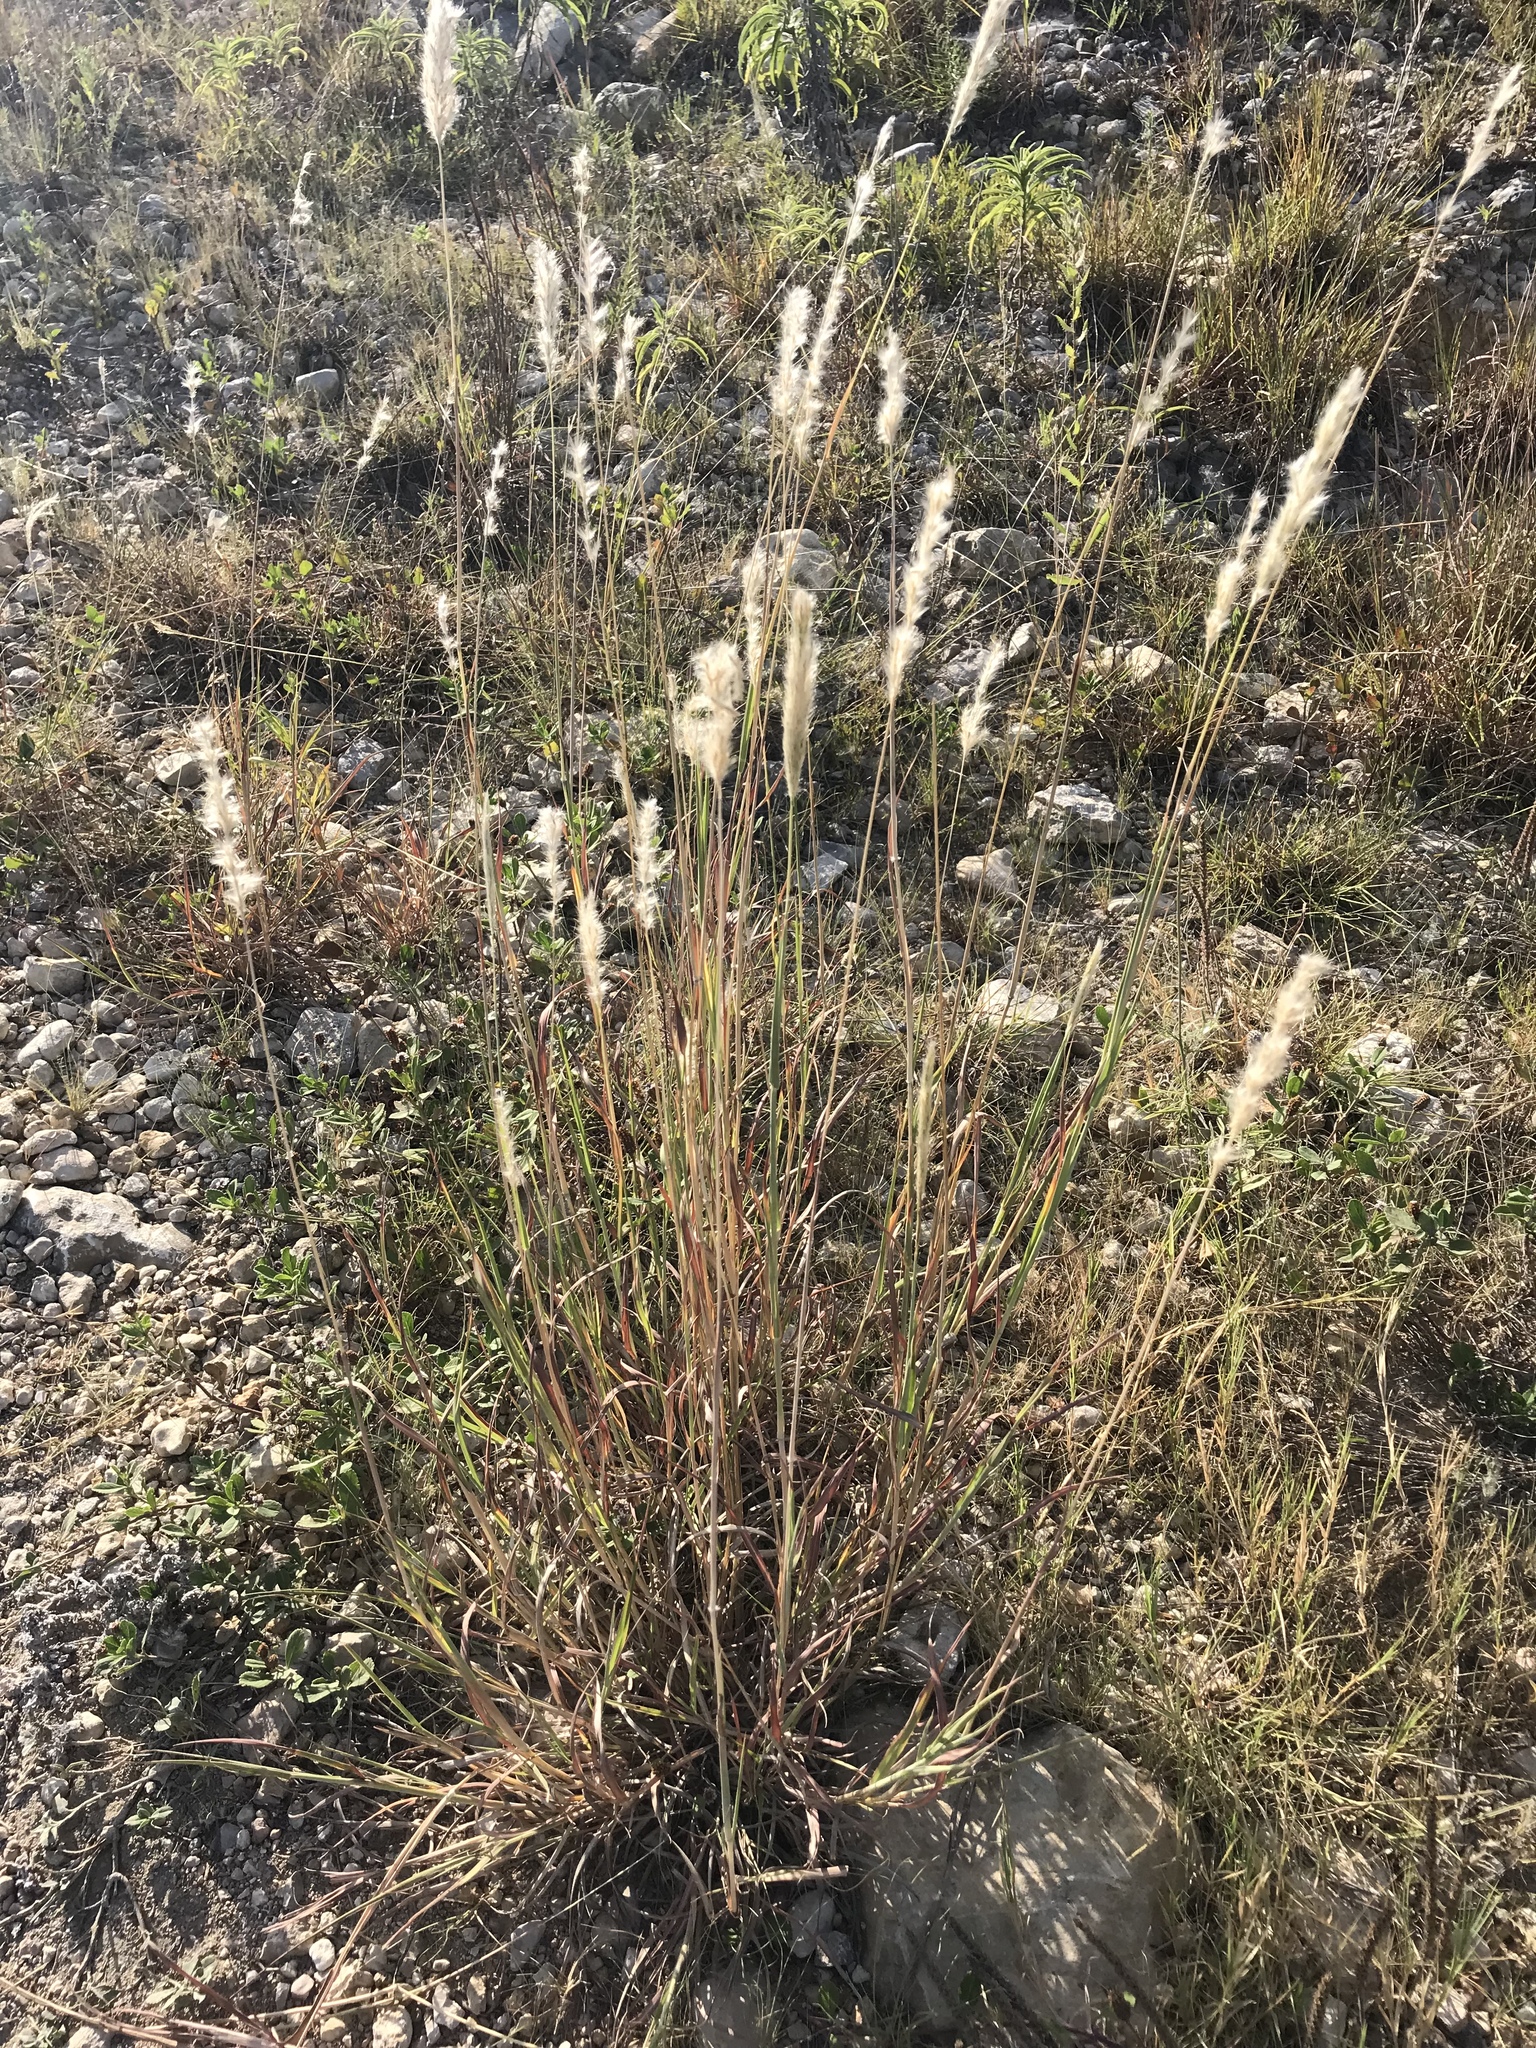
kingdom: Plantae
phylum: Tracheophyta
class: Liliopsida
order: Poales
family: Poaceae
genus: Bothriochloa
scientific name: Bothriochloa torreyana
